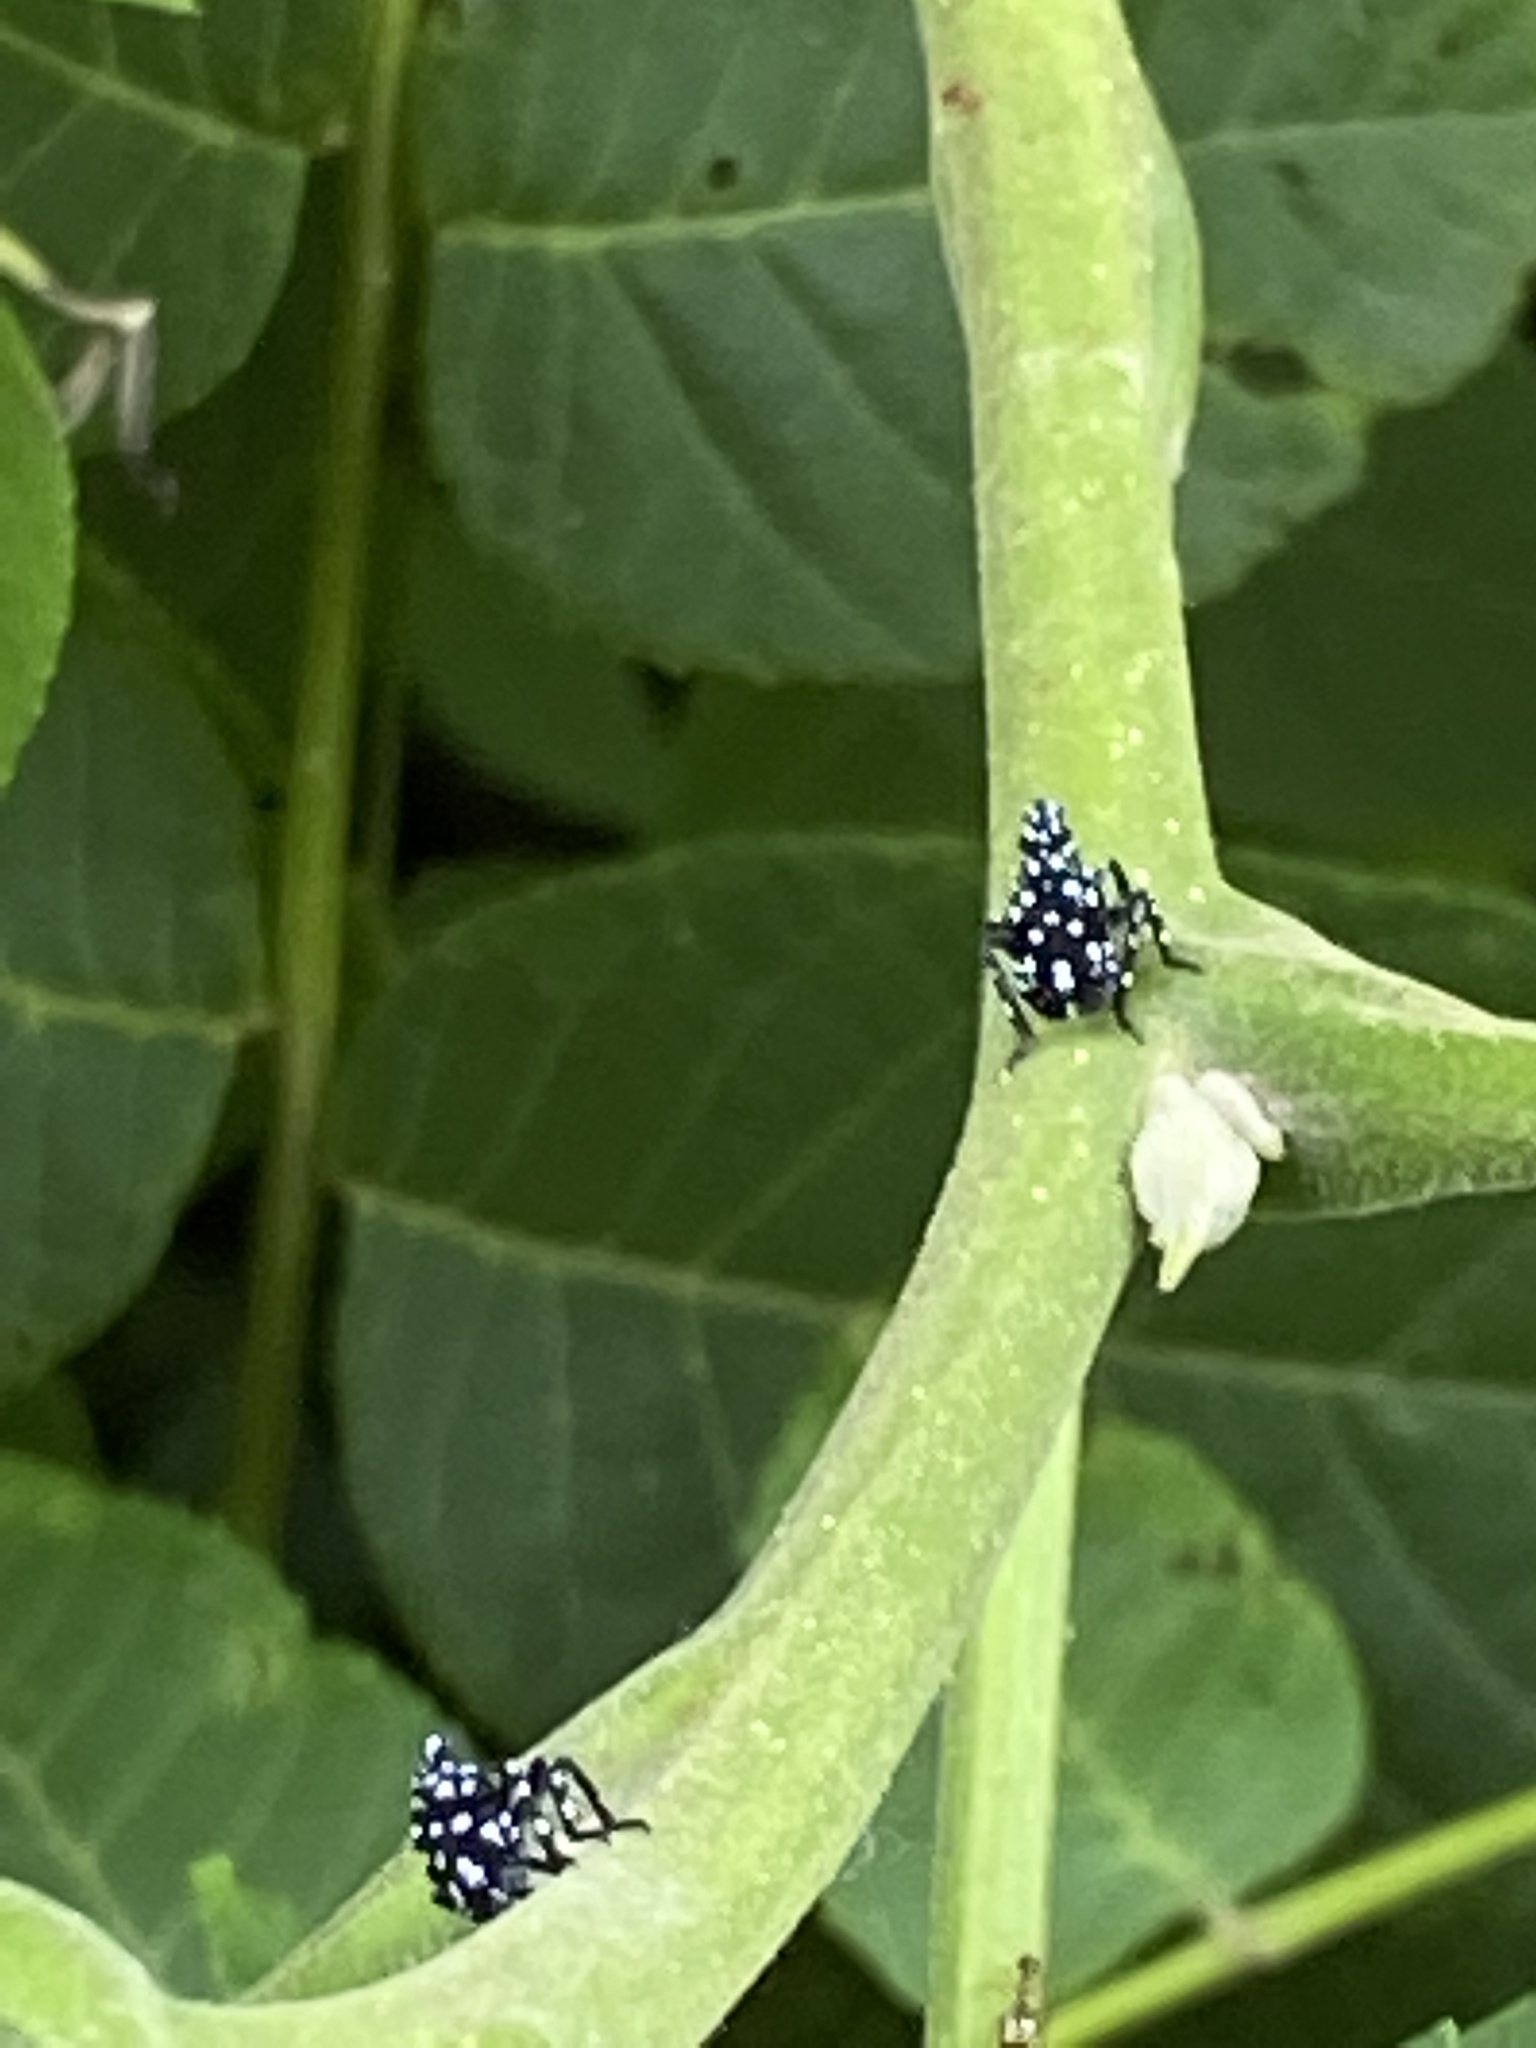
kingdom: Animalia
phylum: Arthropoda
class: Insecta
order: Hemiptera
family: Fulgoridae
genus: Lycorma
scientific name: Lycorma delicatula
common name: Spotted lanternfly
